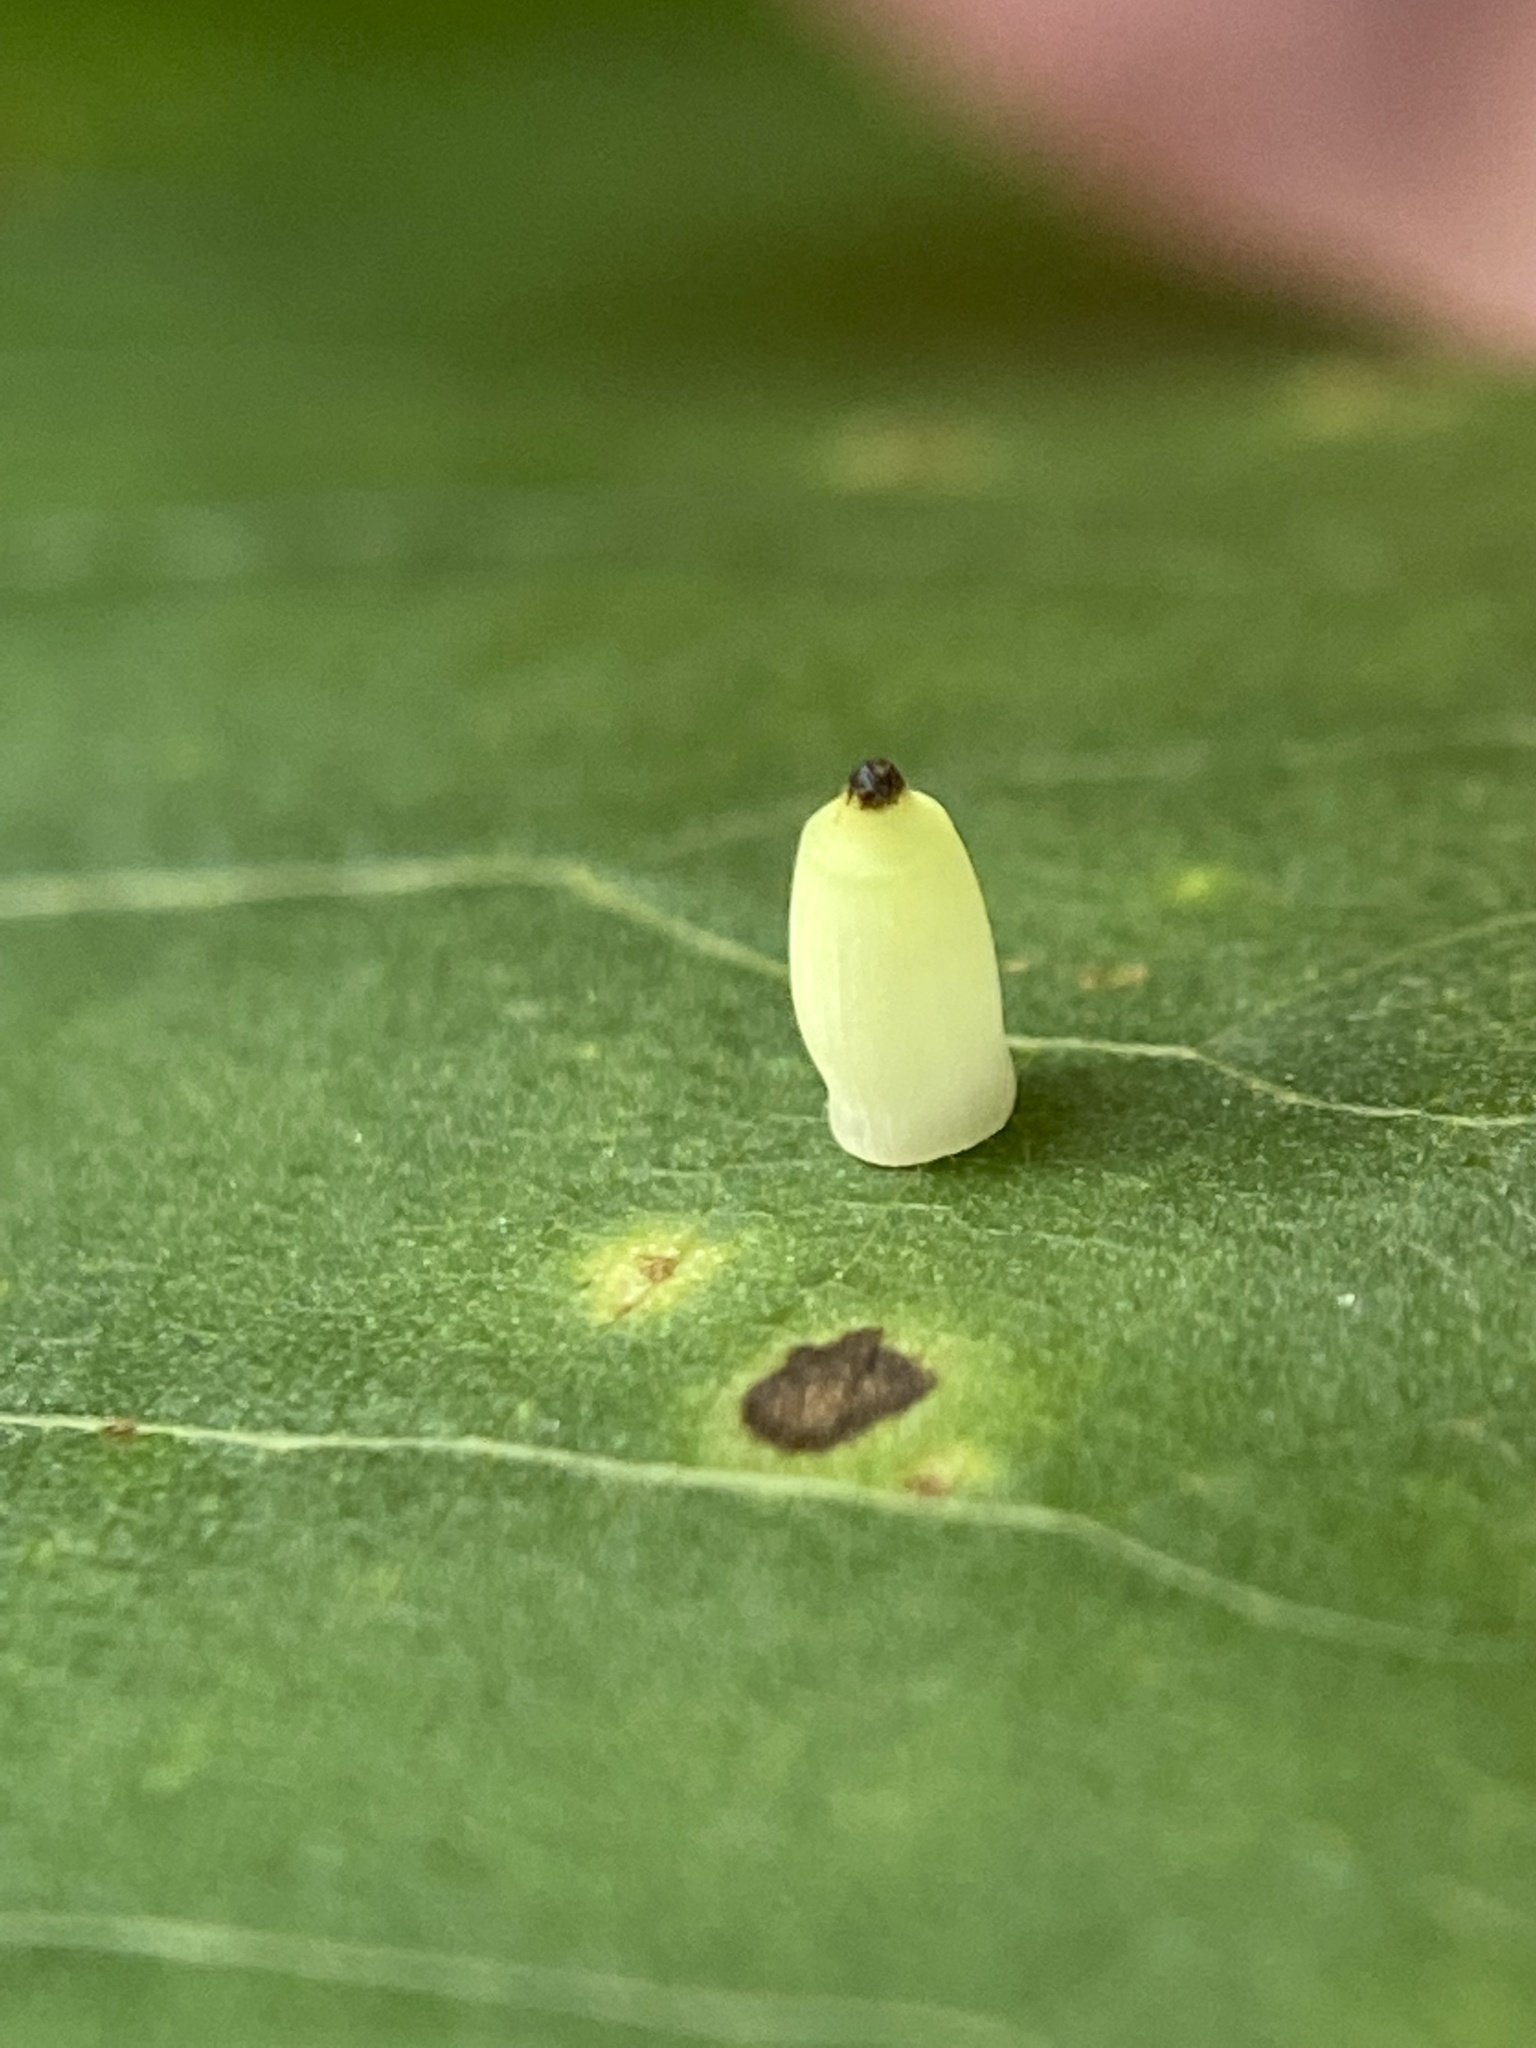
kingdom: Animalia
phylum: Arthropoda
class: Insecta
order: Diptera
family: Cecidomyiidae
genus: Caryomyia
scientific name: Caryomyia urnula
